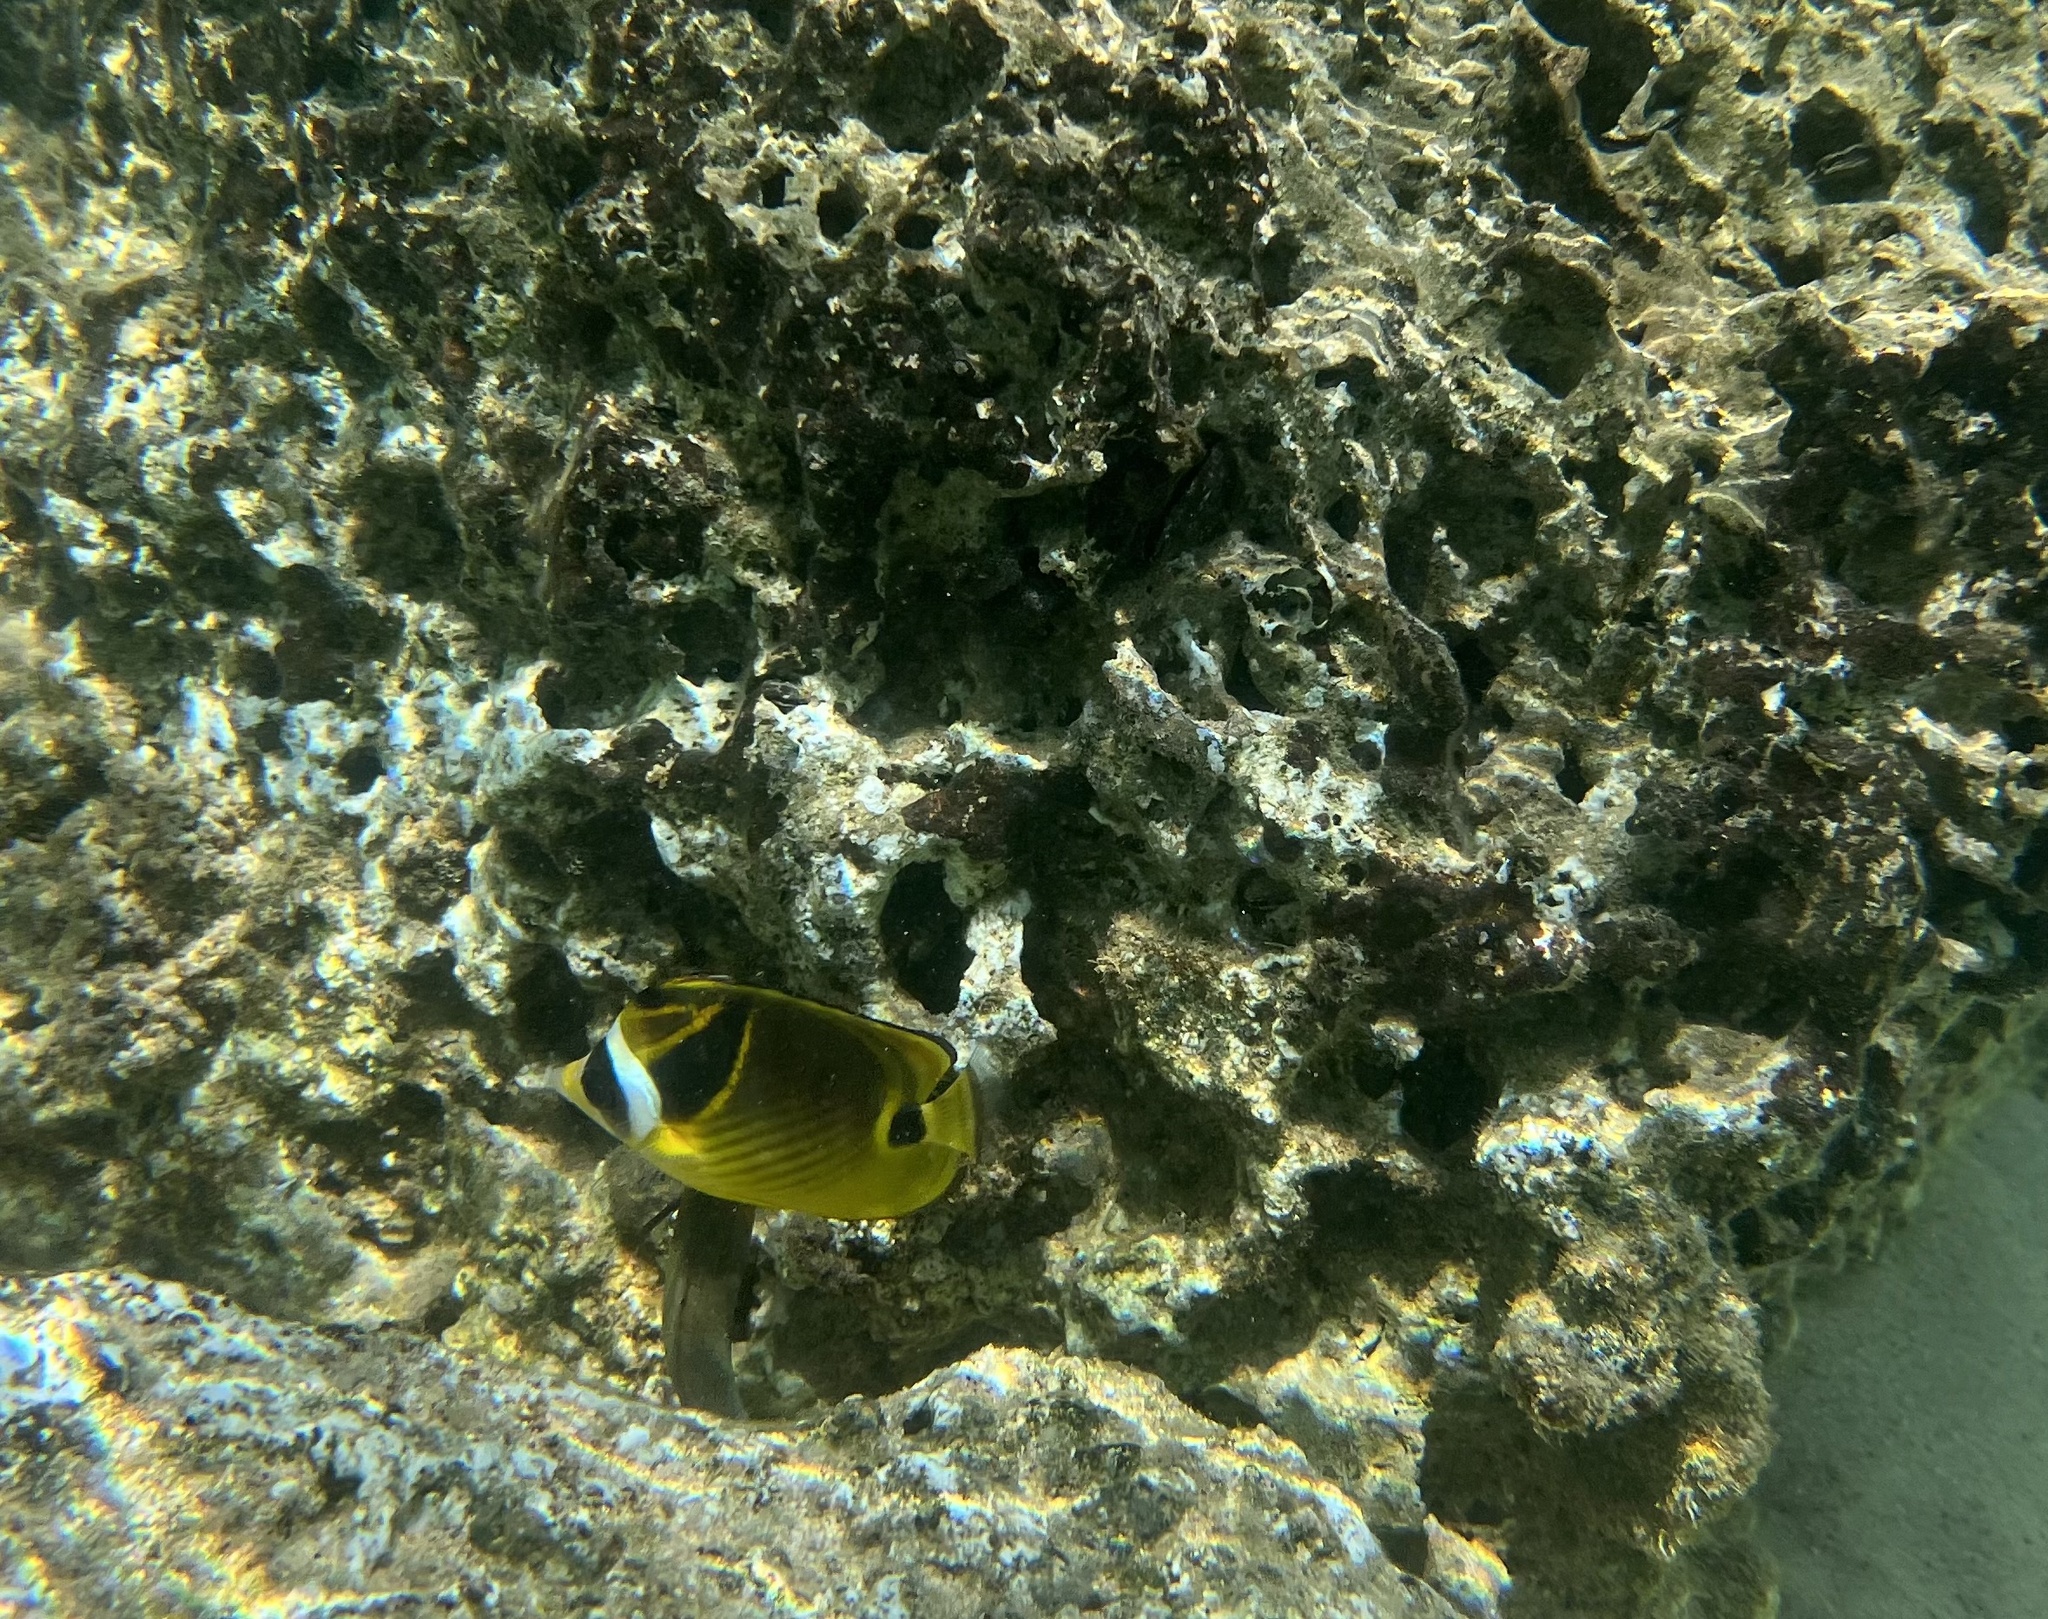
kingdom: Animalia
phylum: Chordata
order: Perciformes
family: Chaetodontidae
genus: Chaetodon
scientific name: Chaetodon lunula
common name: Raccoon butterflyfish
